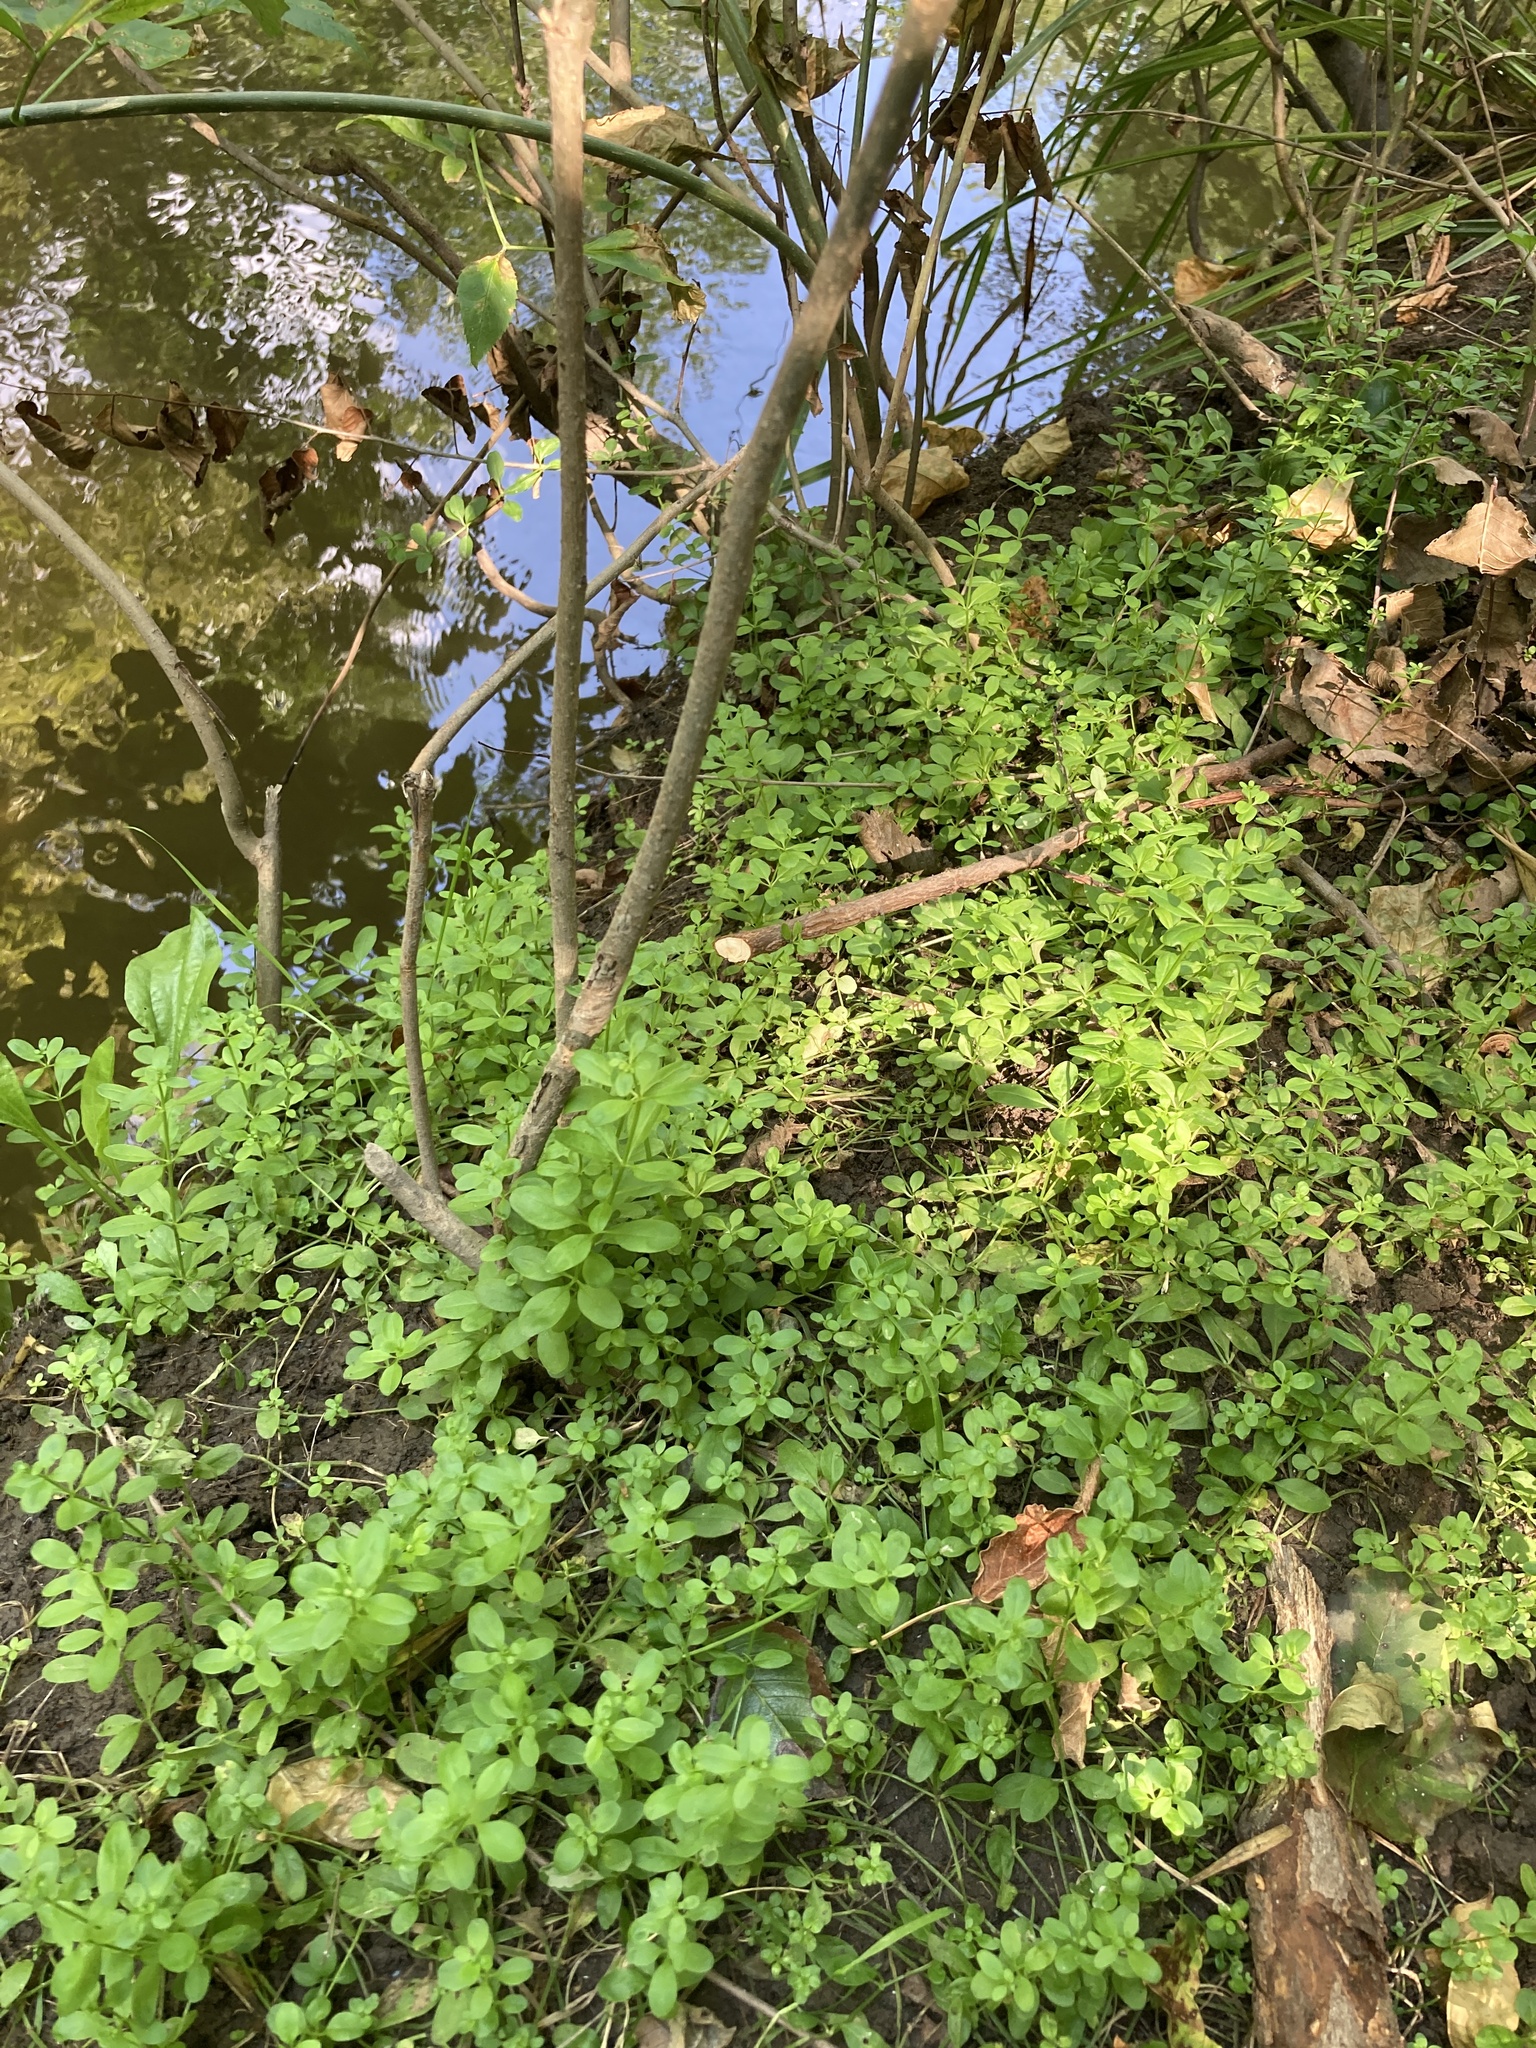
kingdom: Plantae
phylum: Tracheophyta
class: Magnoliopsida
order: Gentianales
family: Rubiaceae
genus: Galium
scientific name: Galium palustre
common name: Common marsh-bedstraw
